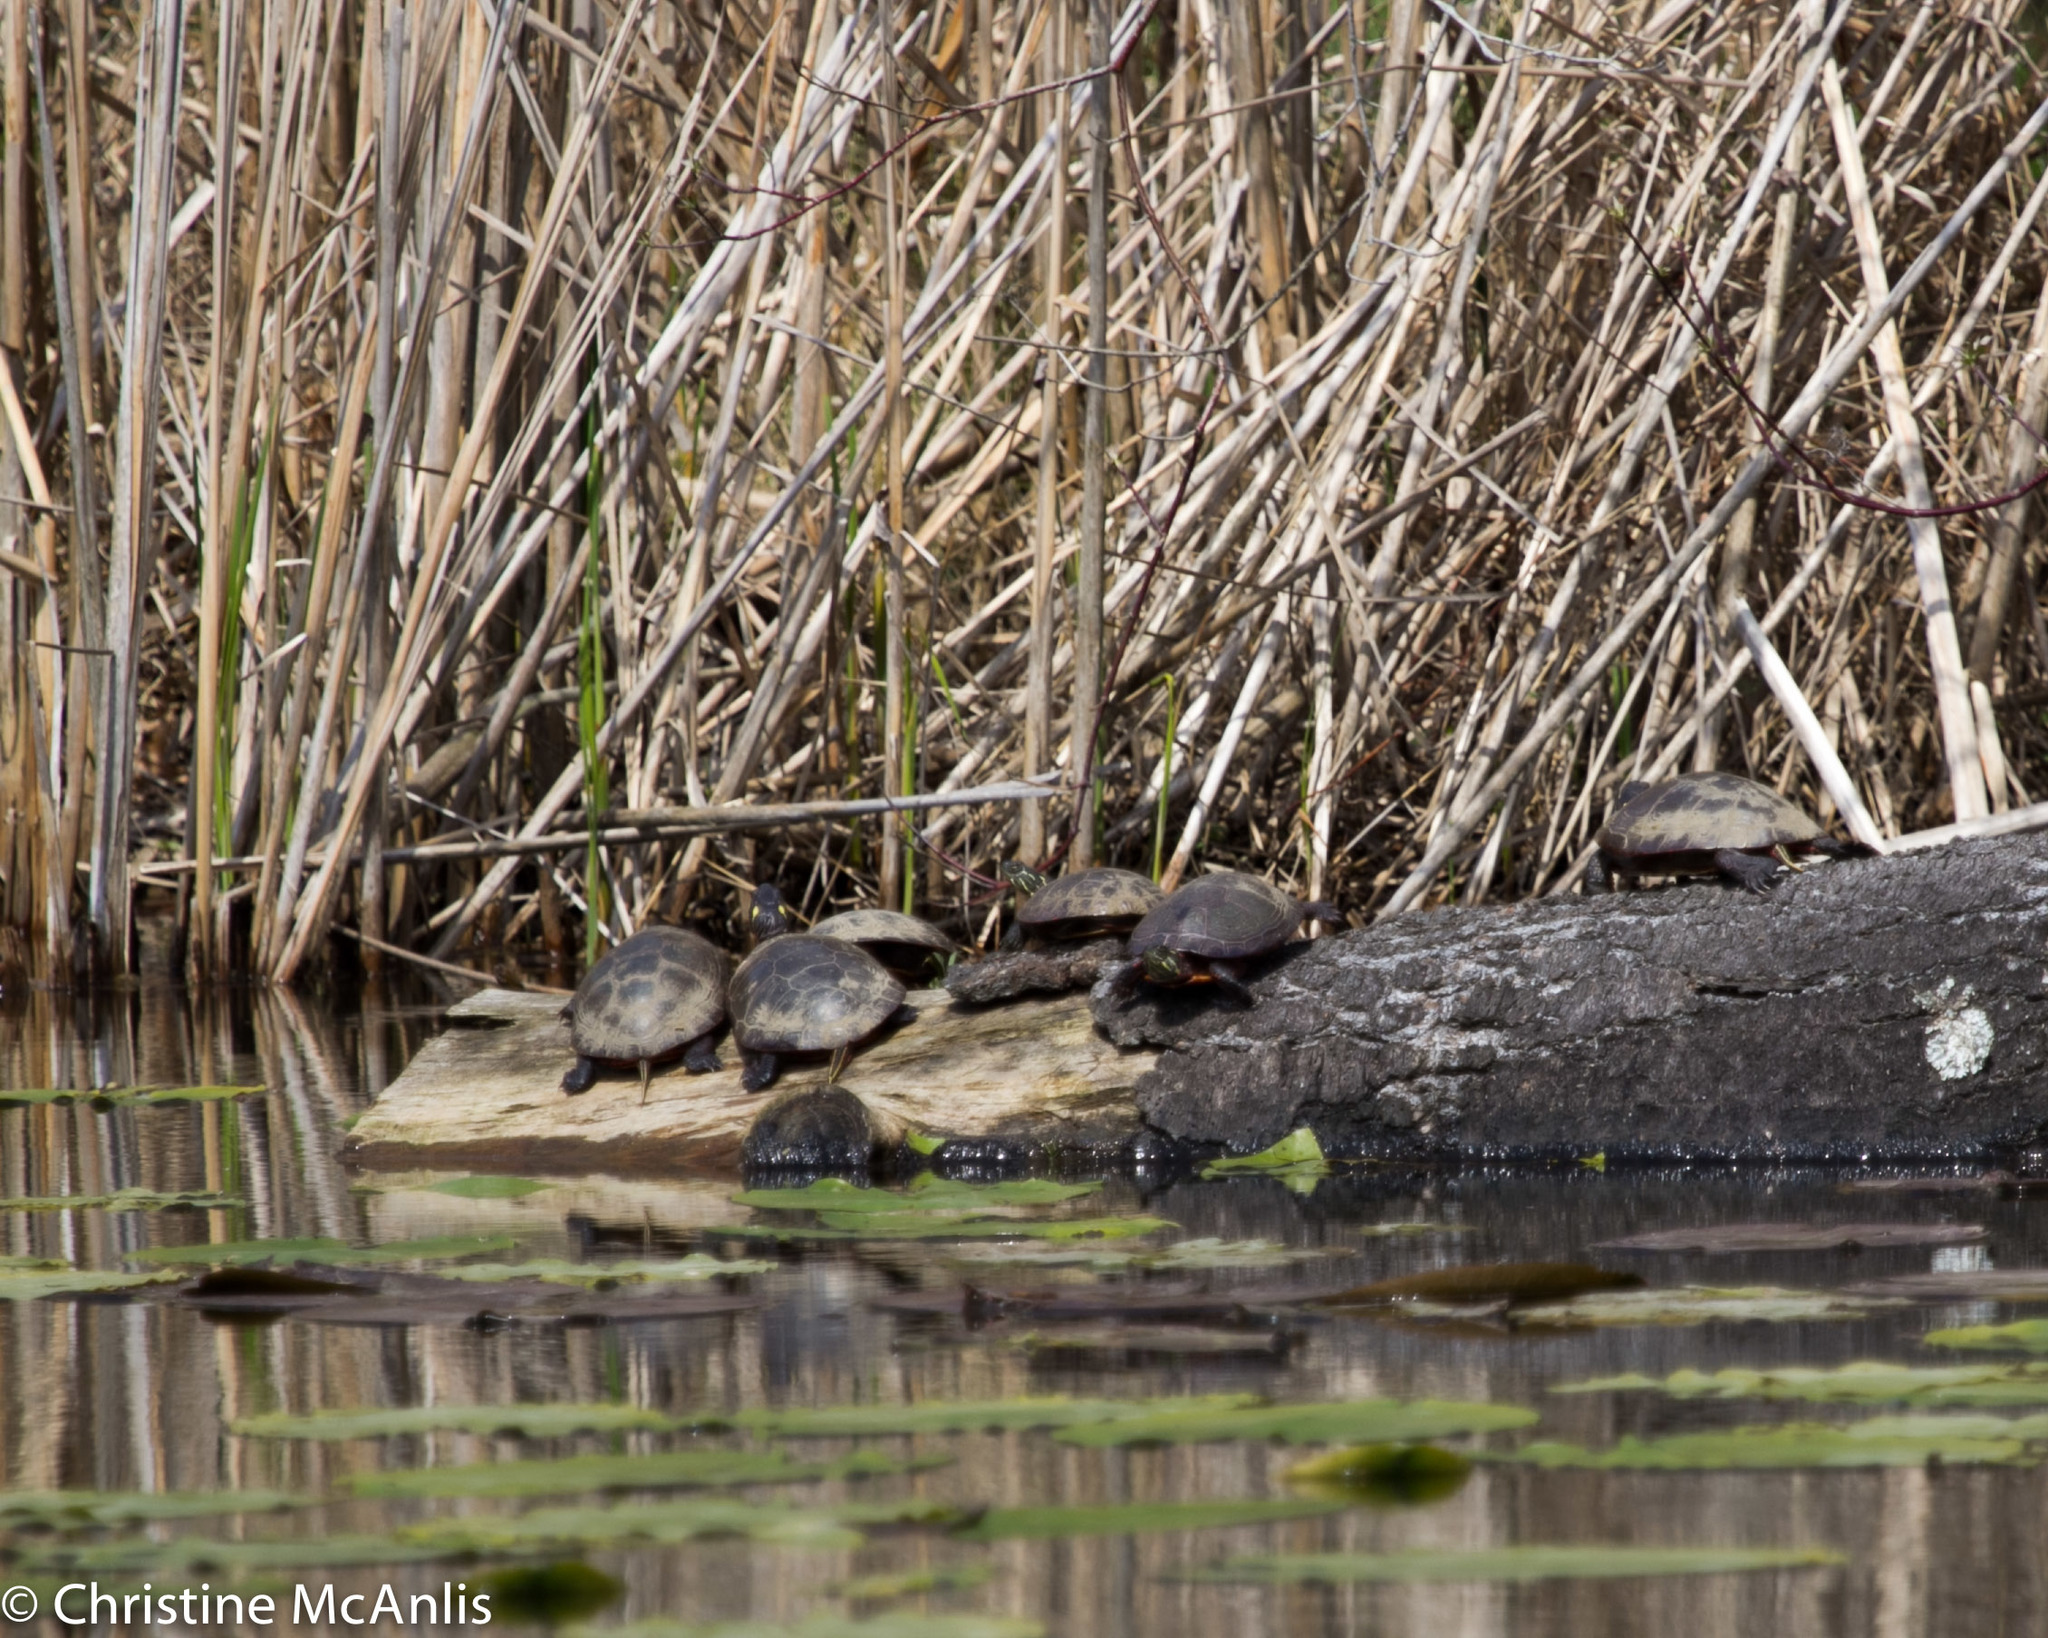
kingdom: Animalia
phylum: Chordata
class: Testudines
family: Emydidae
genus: Chrysemys
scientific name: Chrysemys picta
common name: Painted turtle
